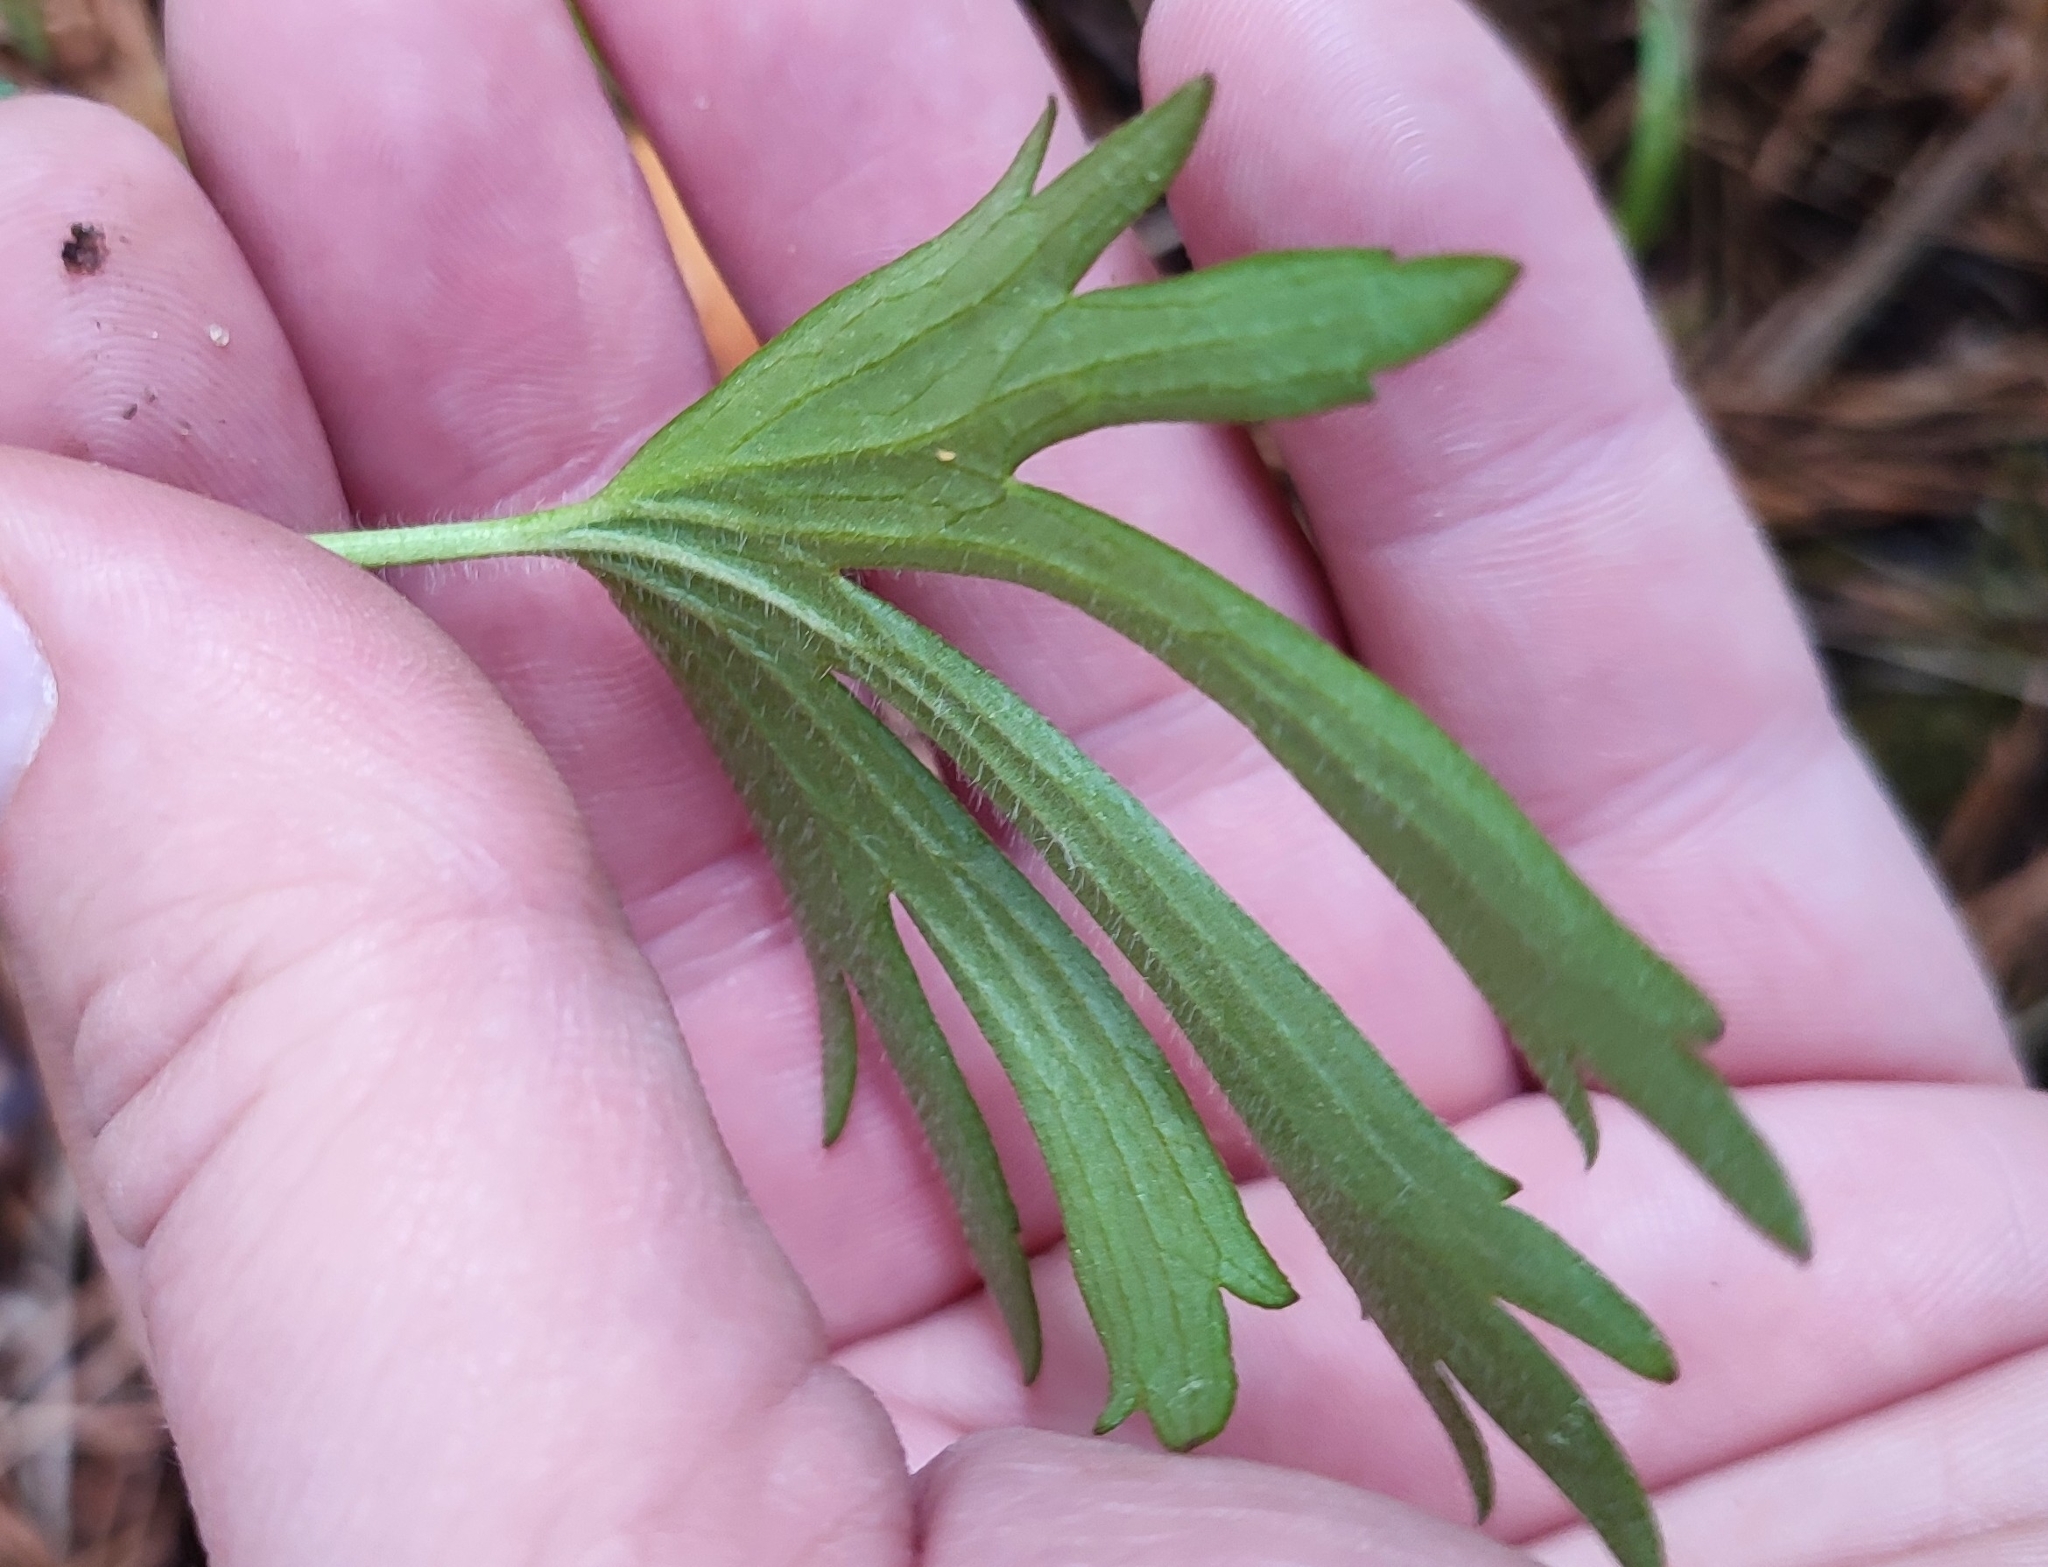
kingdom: Plantae
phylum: Tracheophyta
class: Magnoliopsida
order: Ranunculales
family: Ranunculaceae
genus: Ranunculus
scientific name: Ranunculus polyanthemos
